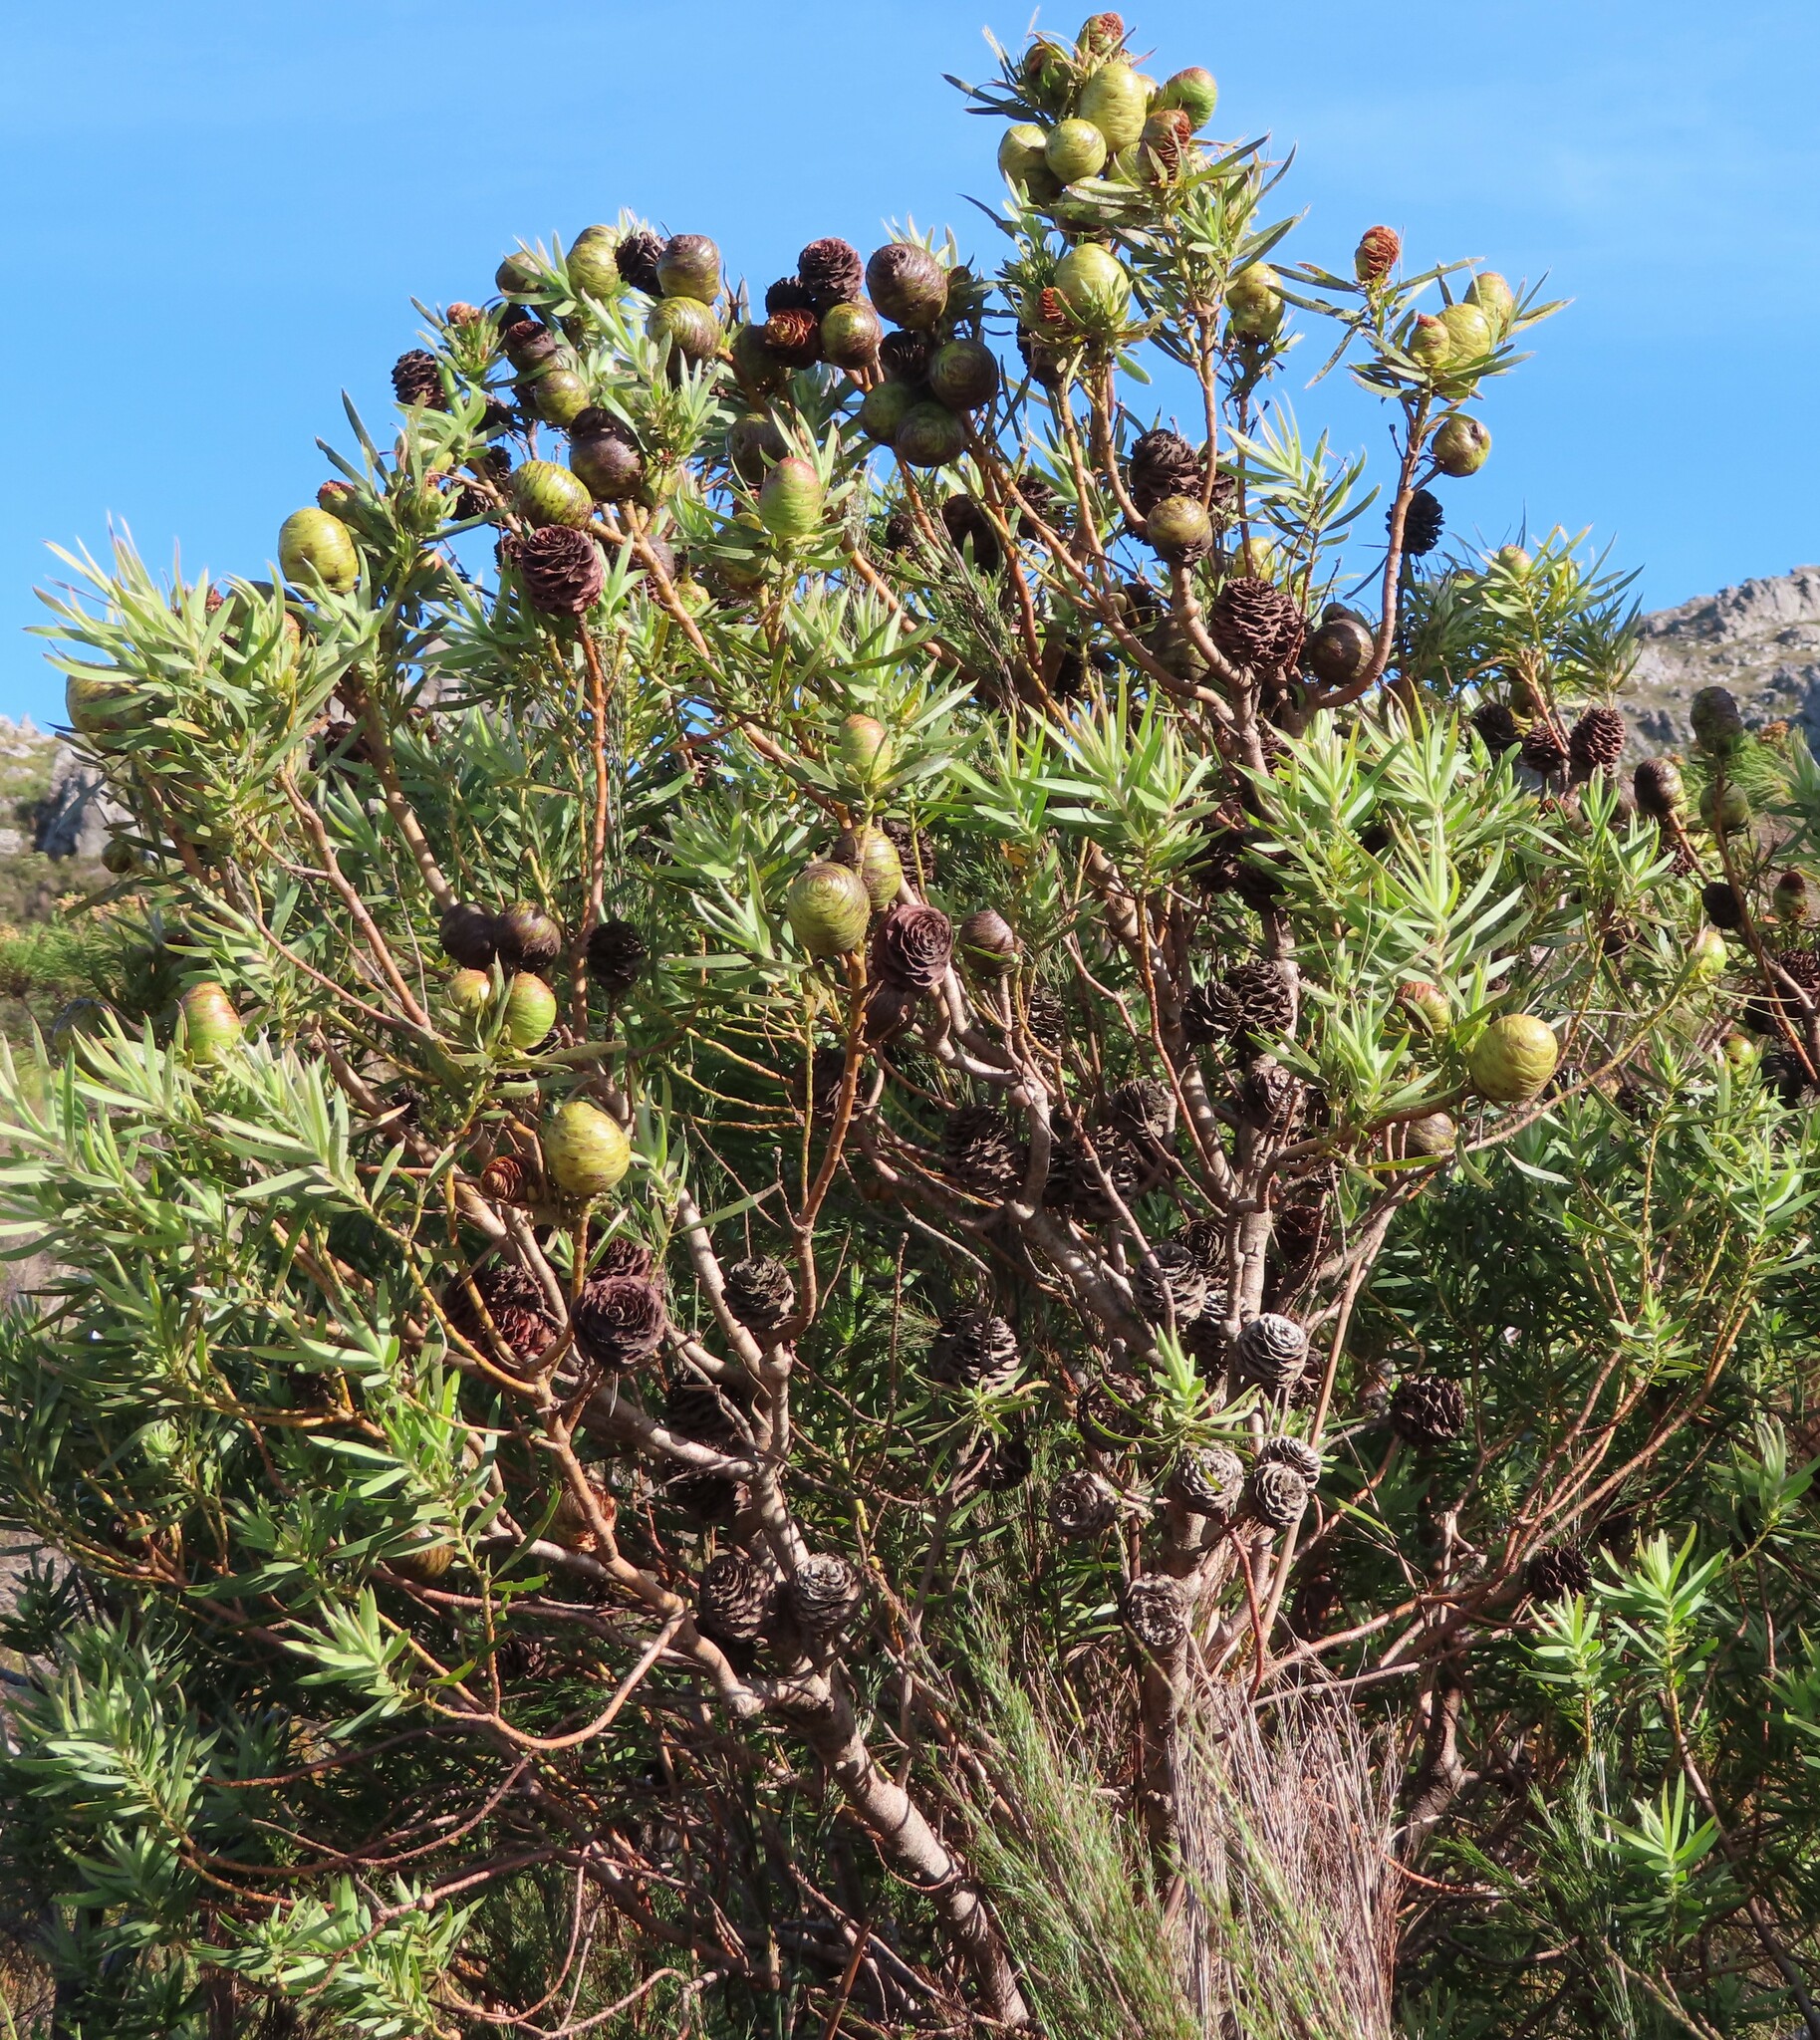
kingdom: Plantae
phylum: Tracheophyta
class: Magnoliopsida
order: Proteales
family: Proteaceae
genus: Leucadendron
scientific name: Leucadendron salicifolium
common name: Common stream conebush
